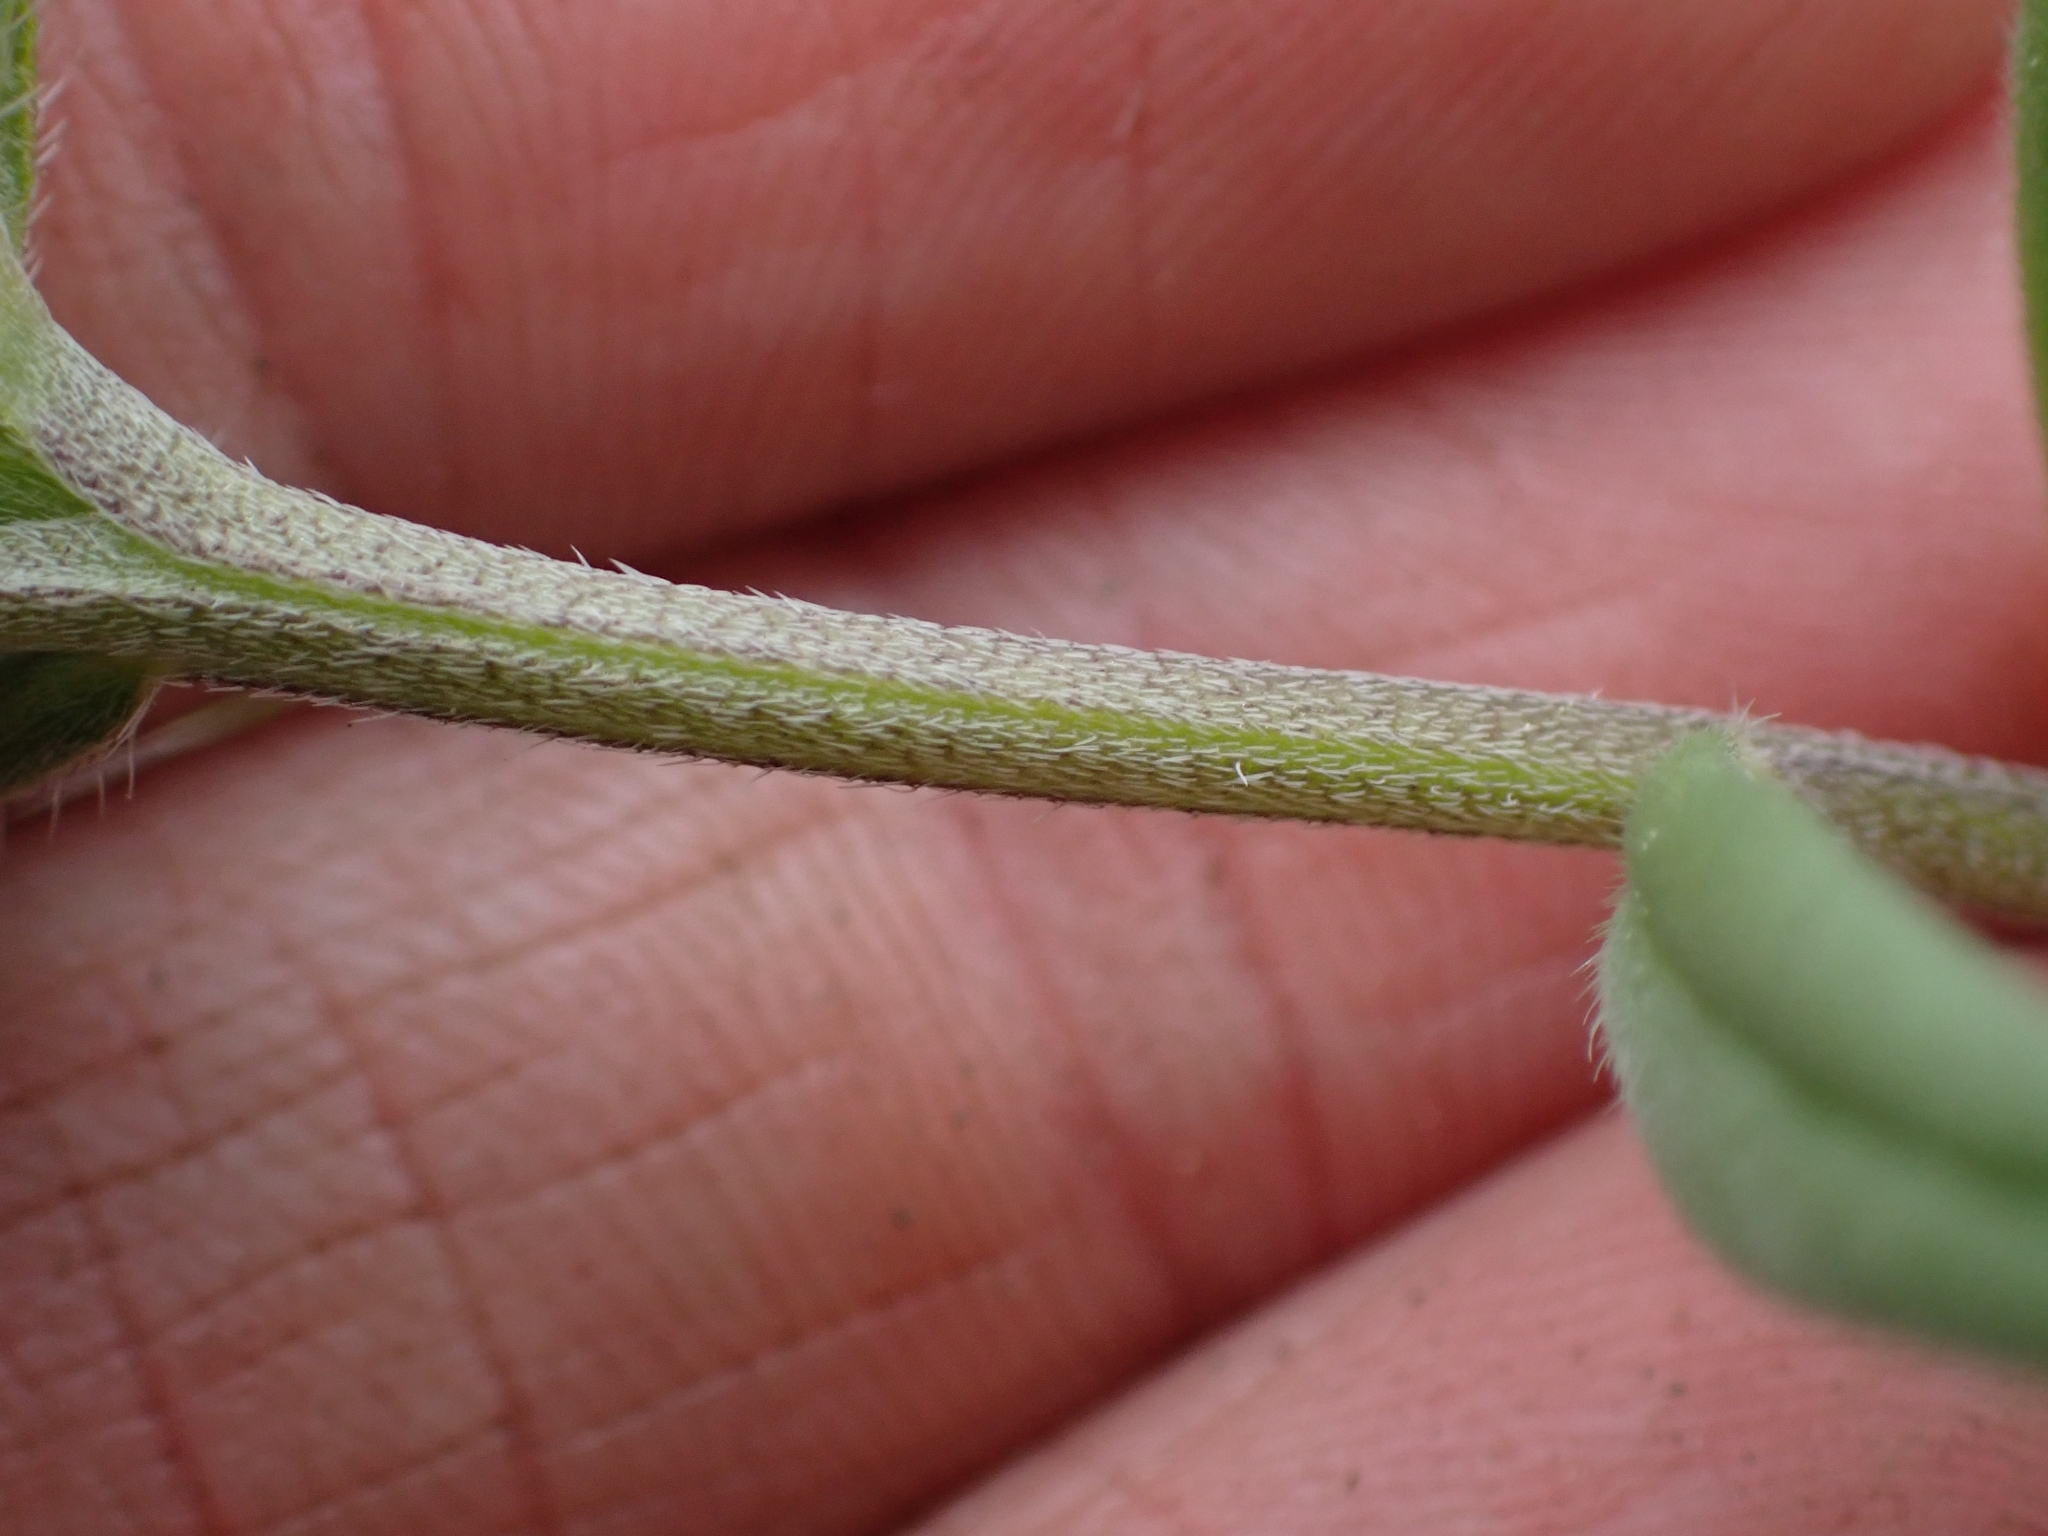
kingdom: Plantae
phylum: Tracheophyta
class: Magnoliopsida
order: Boraginales
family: Boraginaceae
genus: Buglossoides
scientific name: Buglossoides arvensis
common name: Corn gromwell
